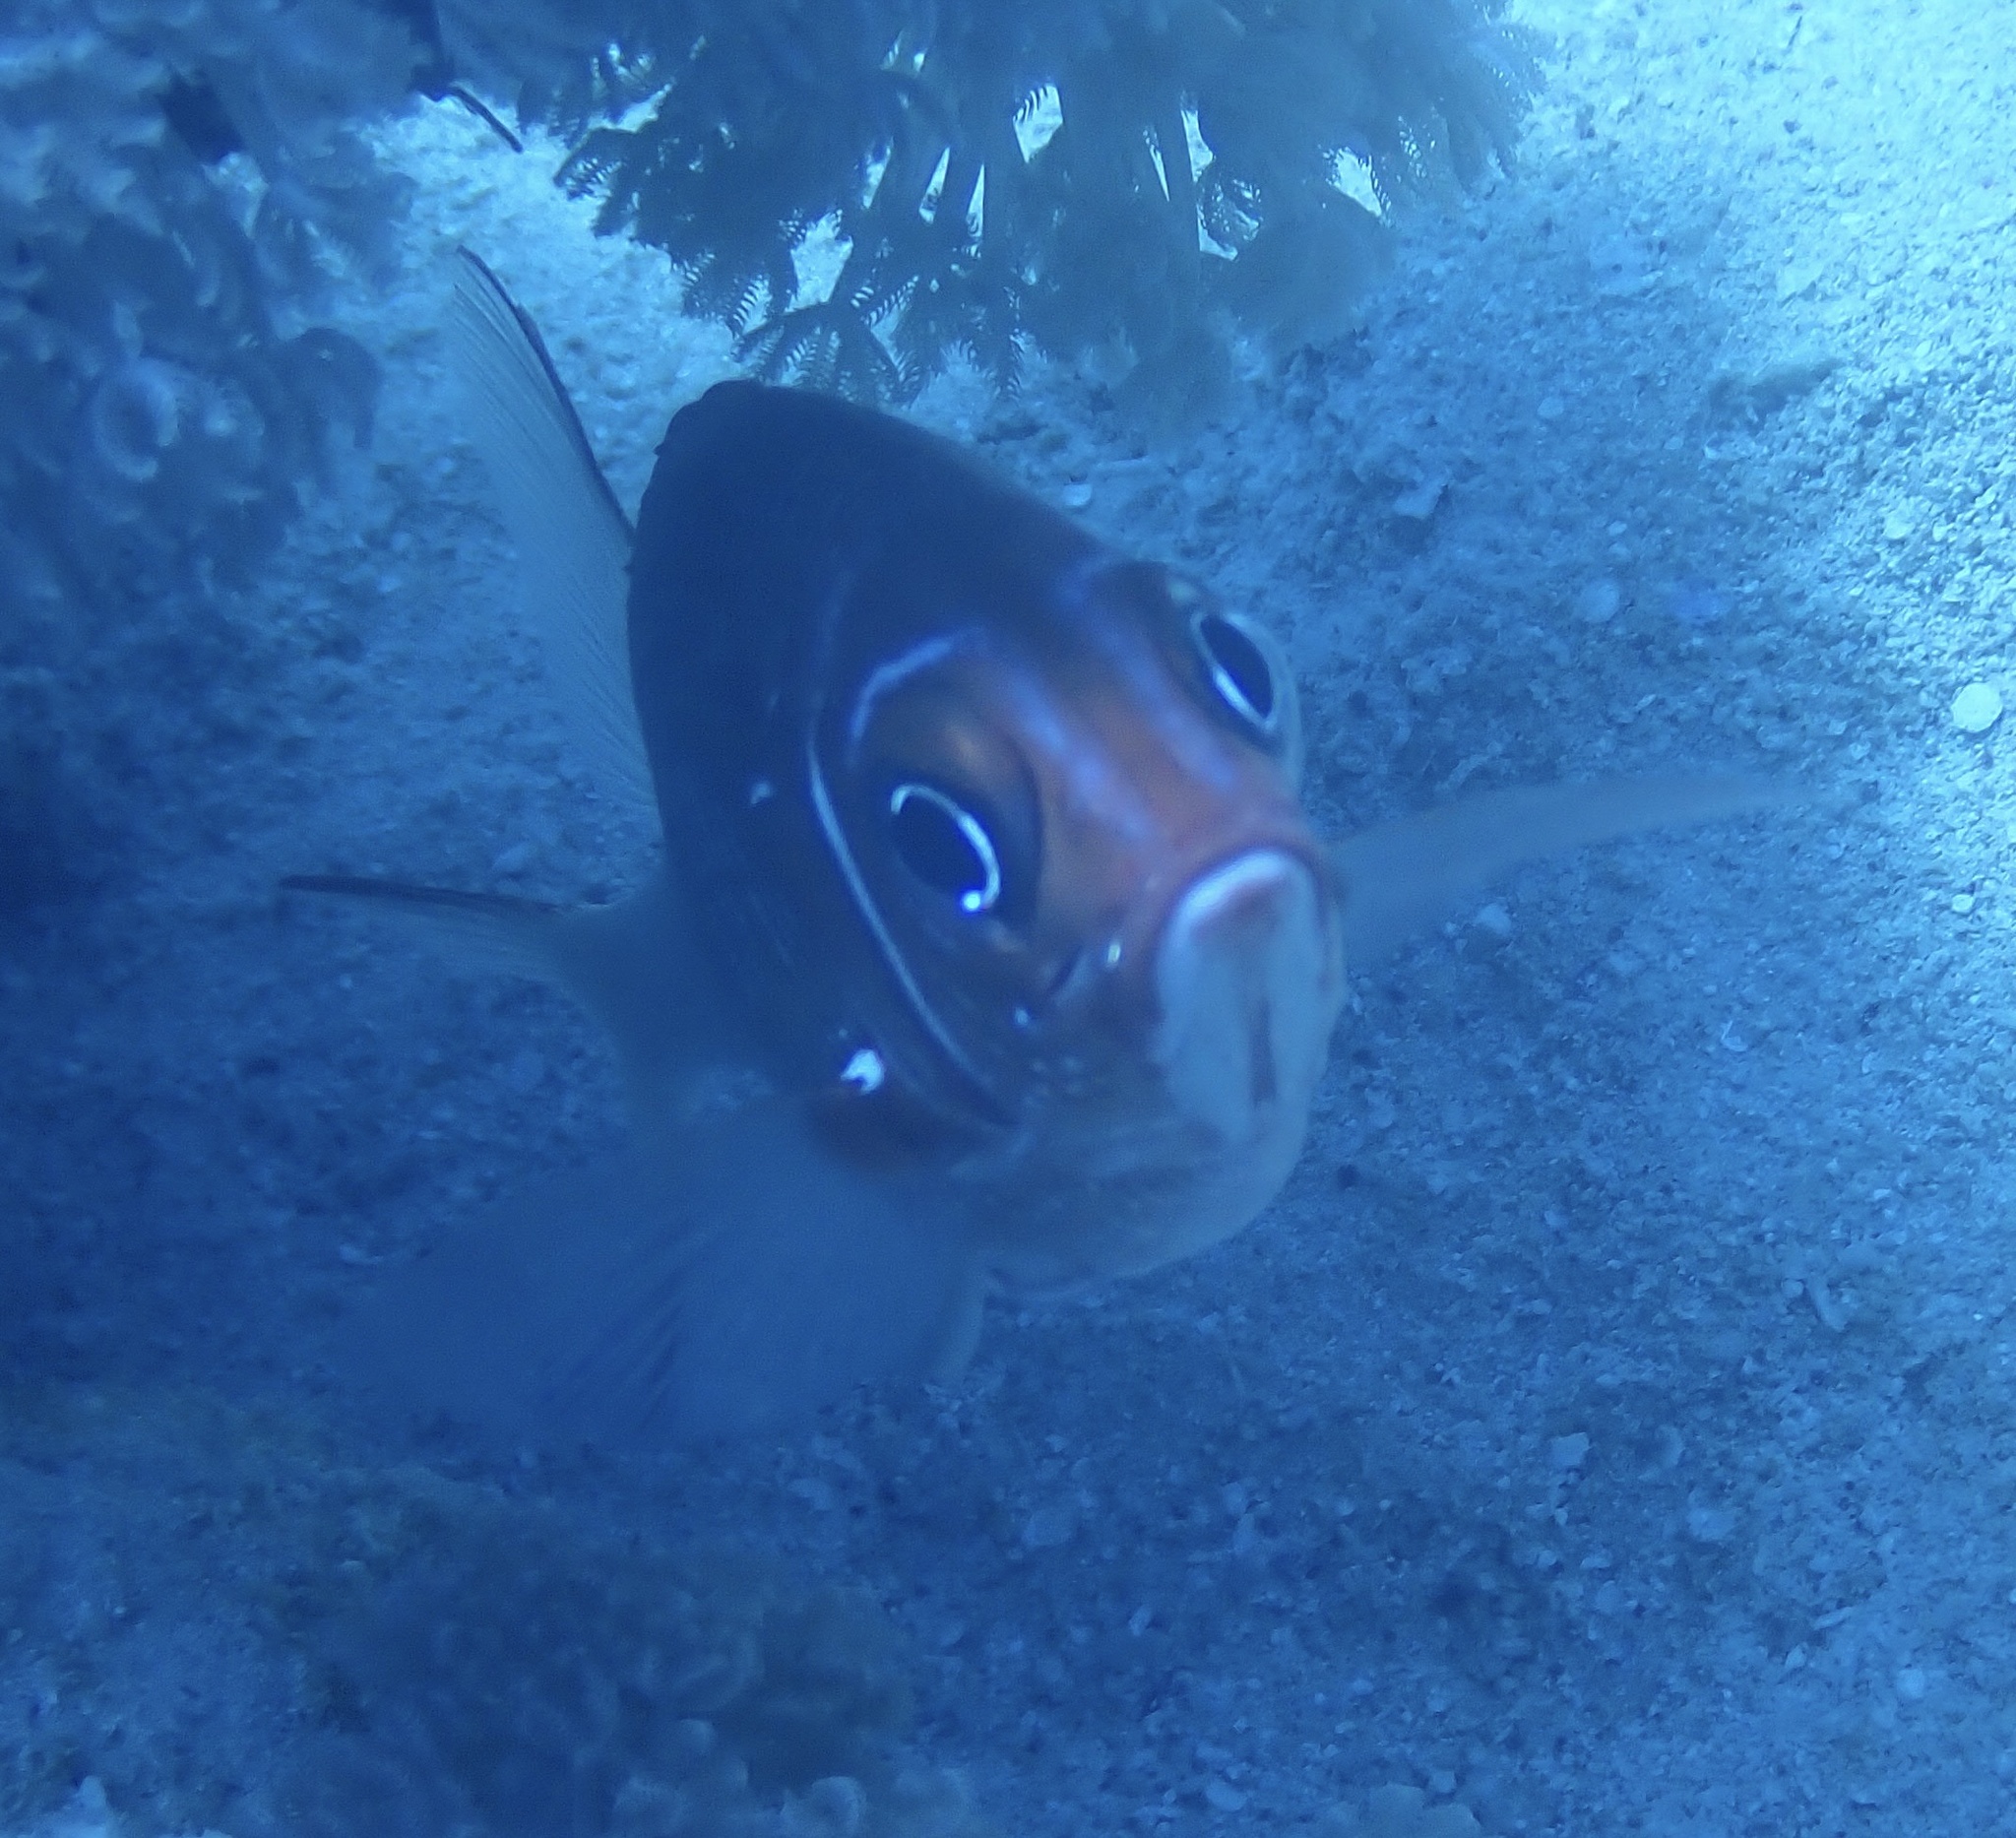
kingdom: Animalia
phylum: Chordata
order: Beryciformes
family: Holocentridae
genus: Sargocentron
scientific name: Sargocentron caudimaculatum
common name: Fanfin soldier
